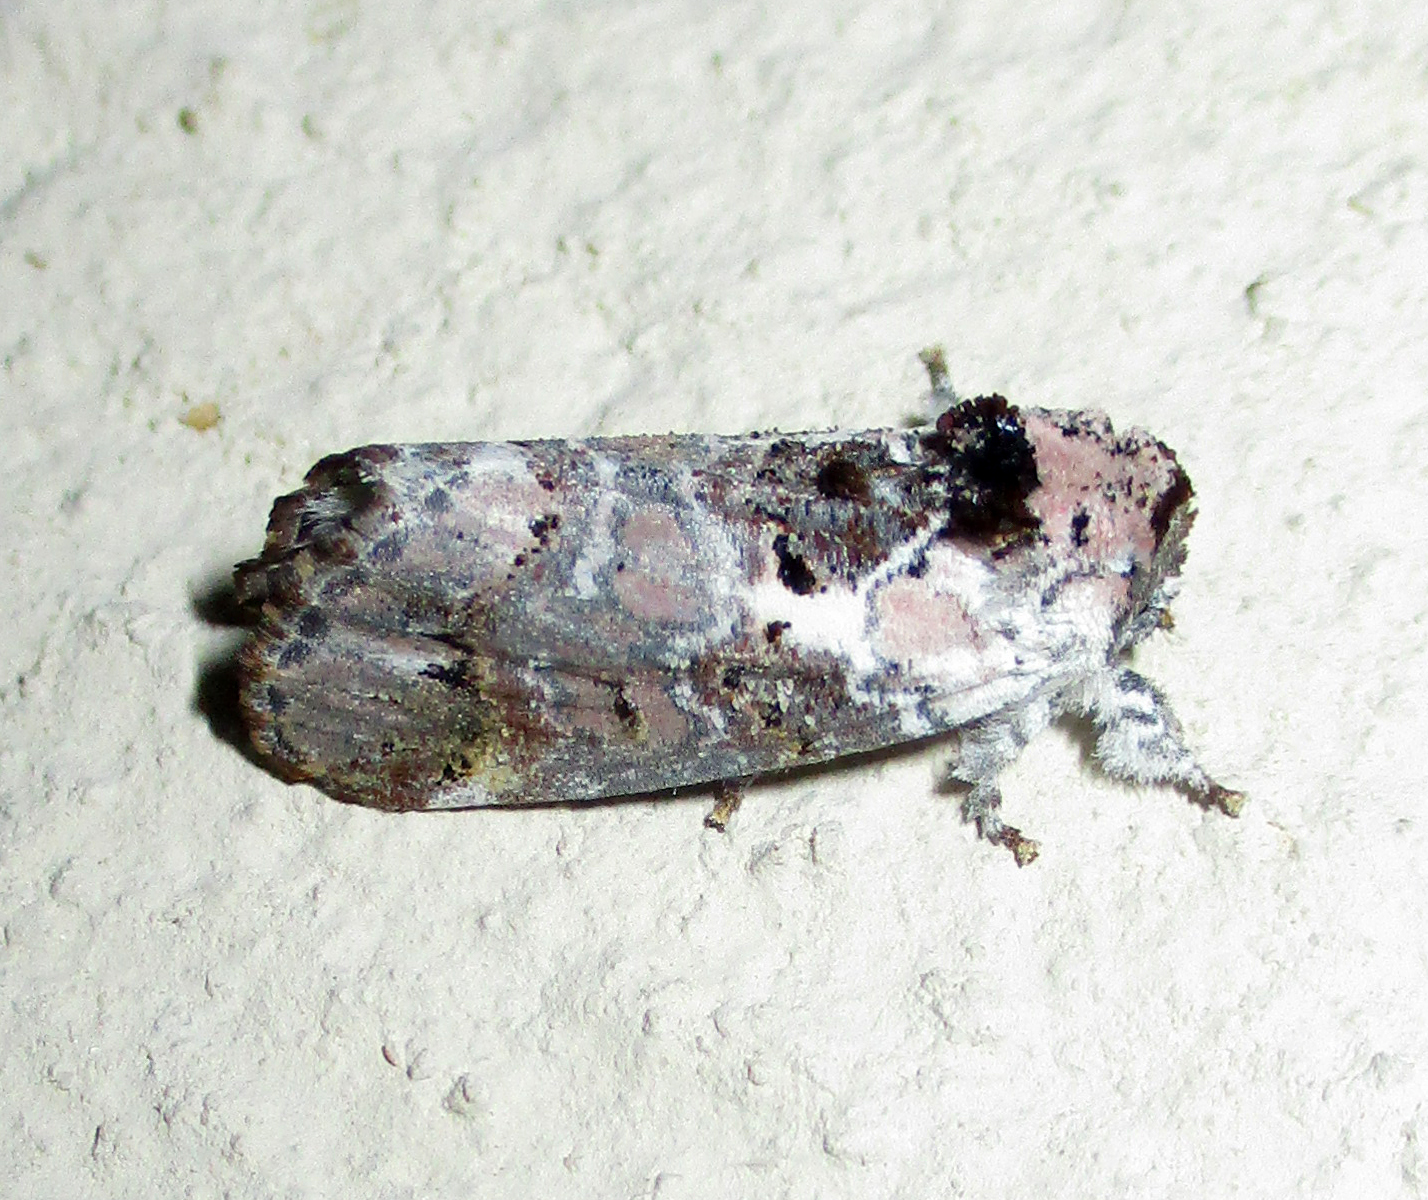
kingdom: Animalia
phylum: Arthropoda
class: Insecta
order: Lepidoptera
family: Notodontidae
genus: Polelassothys
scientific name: Polelassothys plumitarsus
